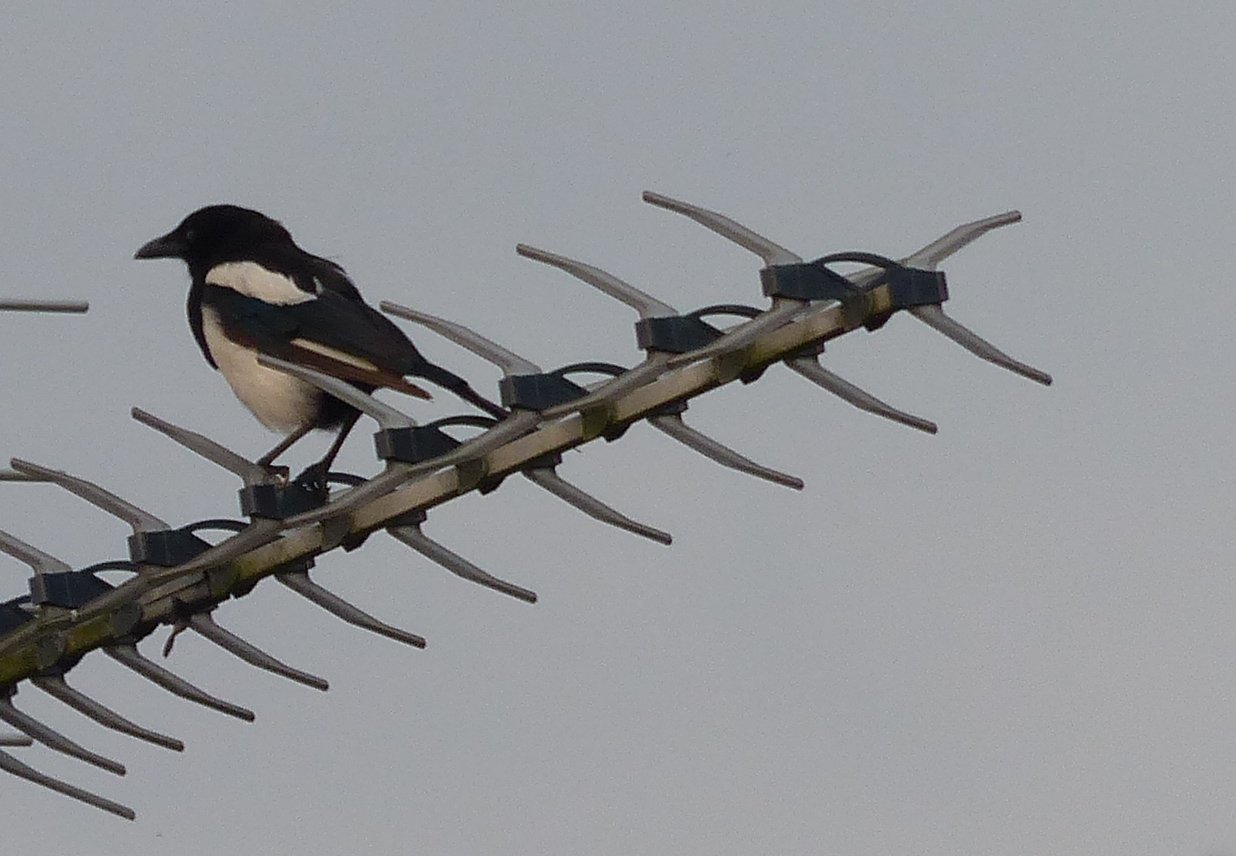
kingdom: Animalia
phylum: Chordata
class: Aves
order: Passeriformes
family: Corvidae
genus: Pica
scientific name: Pica pica
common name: Eurasian magpie
